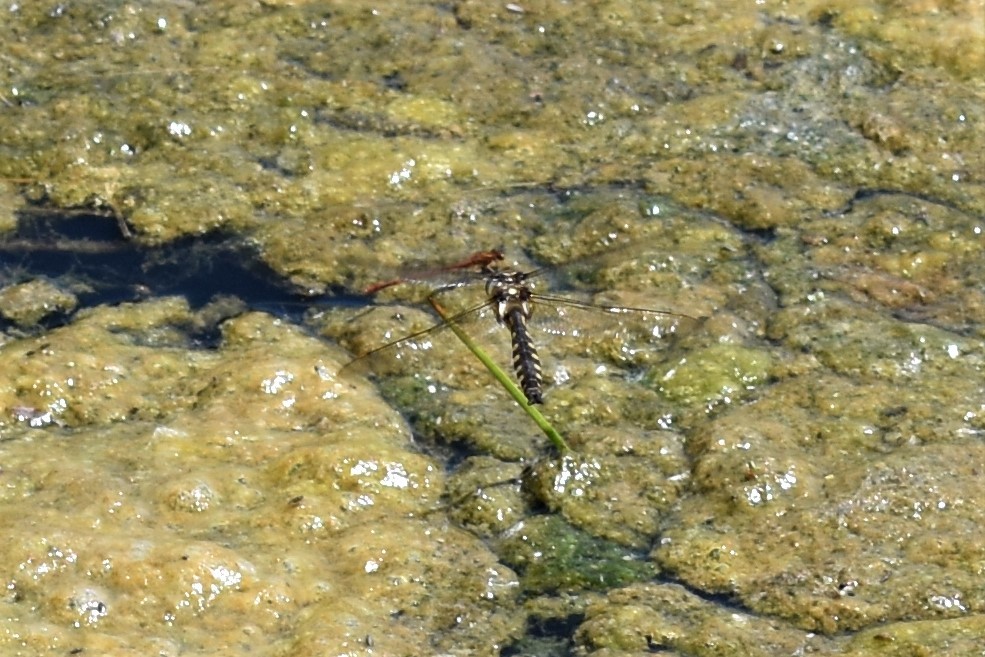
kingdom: Animalia
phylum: Arthropoda
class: Insecta
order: Odonata
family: Corduliidae
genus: Procordulia
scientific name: Procordulia grayi
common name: Yellow spotted dragonfly
